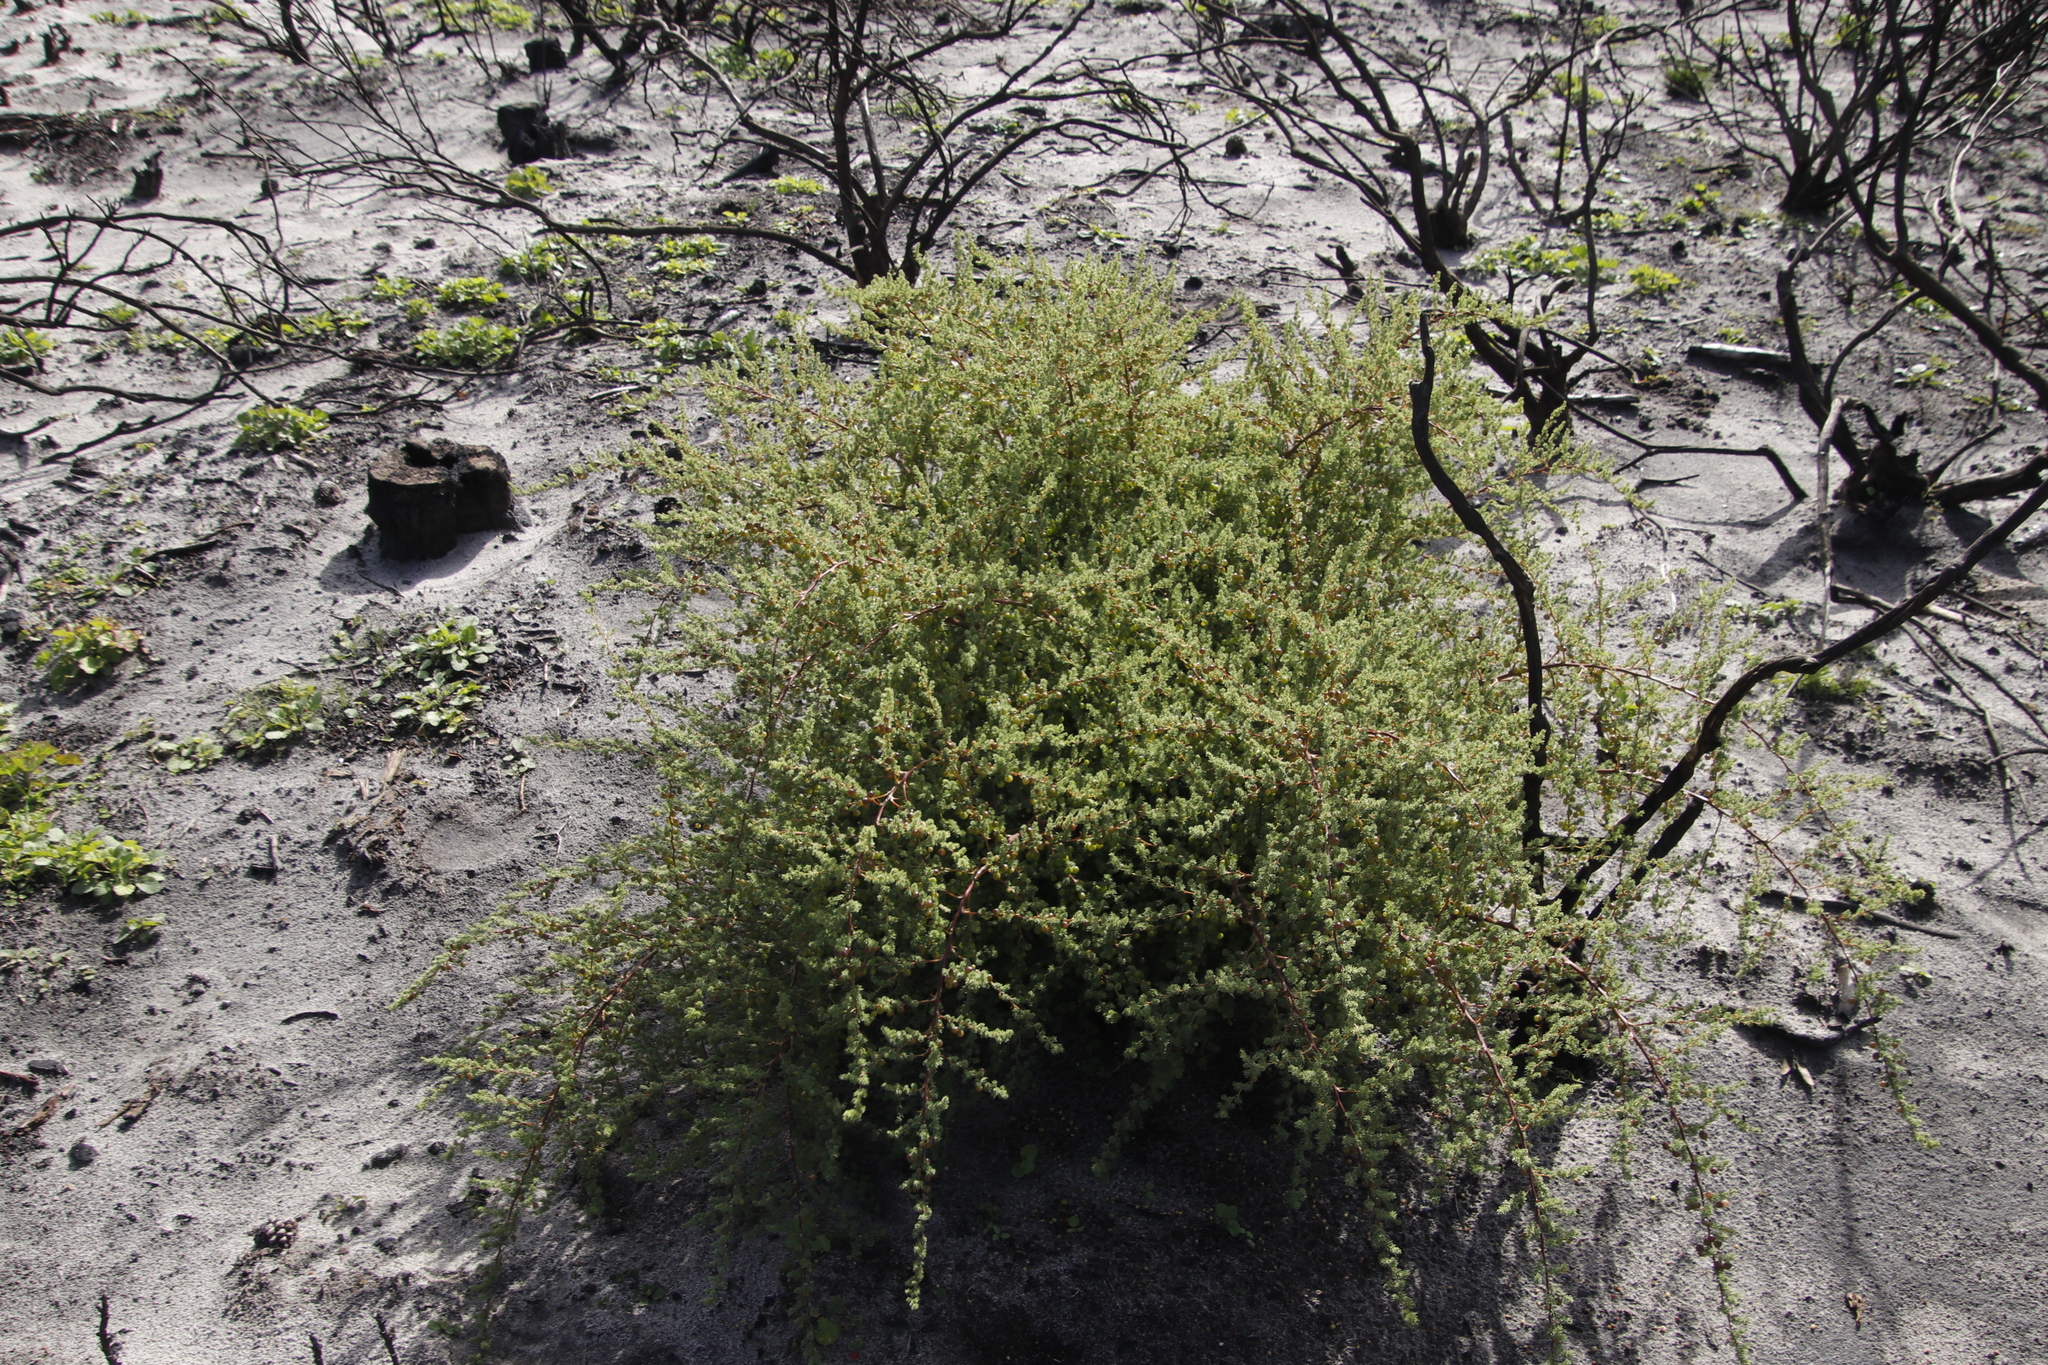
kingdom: Plantae
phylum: Tracheophyta
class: Liliopsida
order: Asparagales
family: Asparagaceae
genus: Asparagus
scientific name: Asparagus rubicundus
